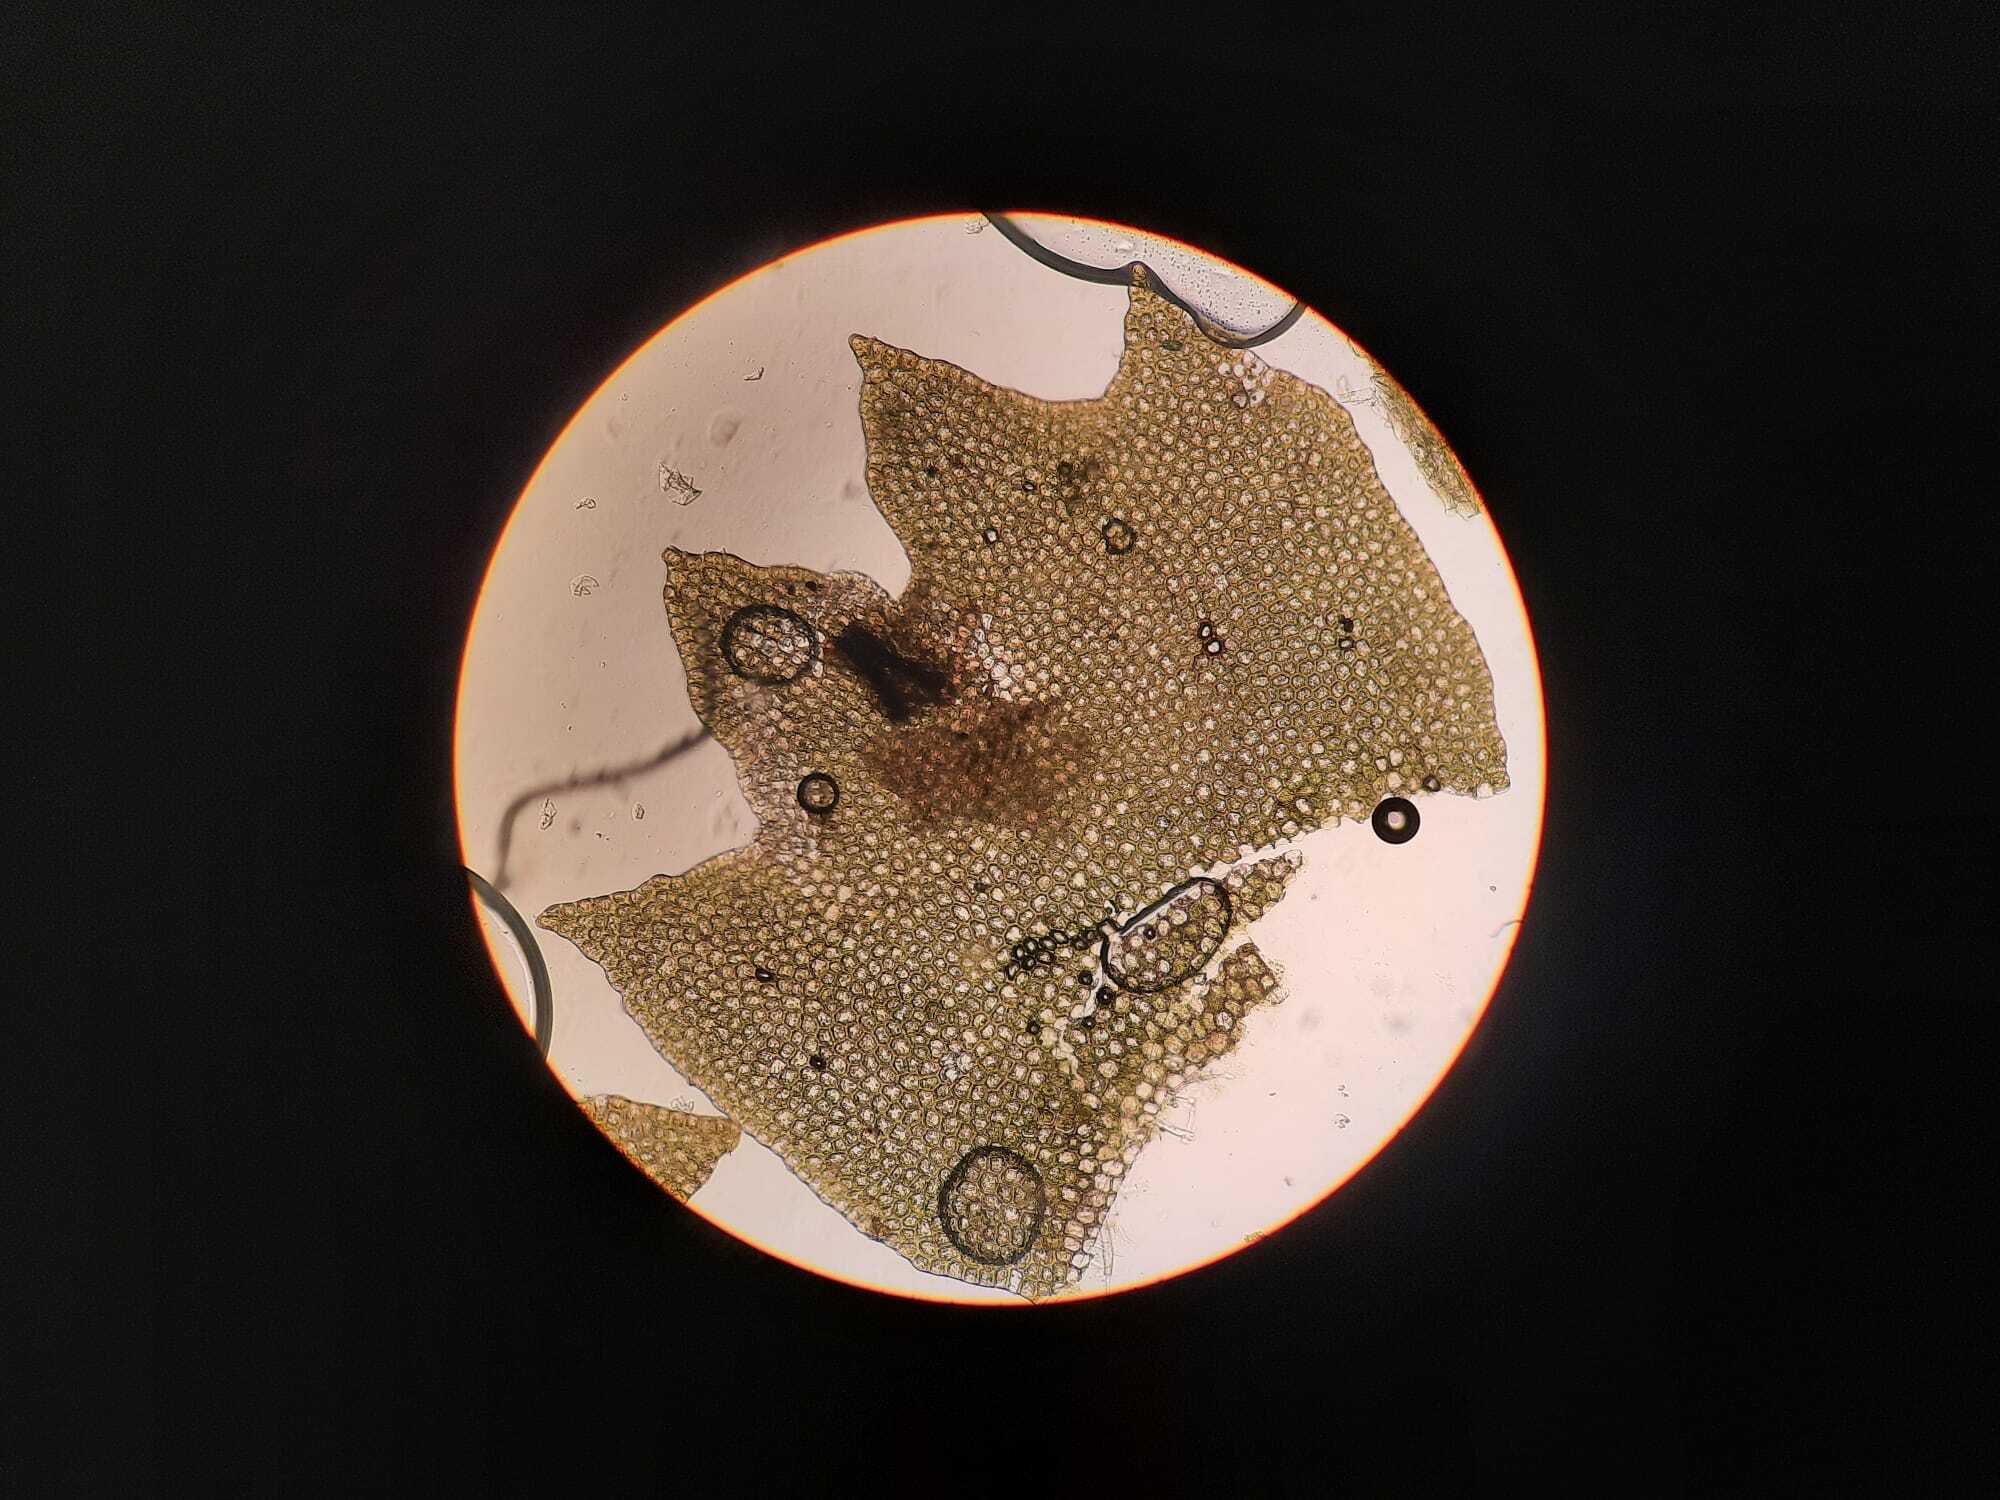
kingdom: Plantae
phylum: Marchantiophyta
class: Jungermanniopsida
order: Jungermanniales
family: Anastrophyllaceae
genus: Barbilophozia
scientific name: Barbilophozia barbata
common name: Bearded pawwort
